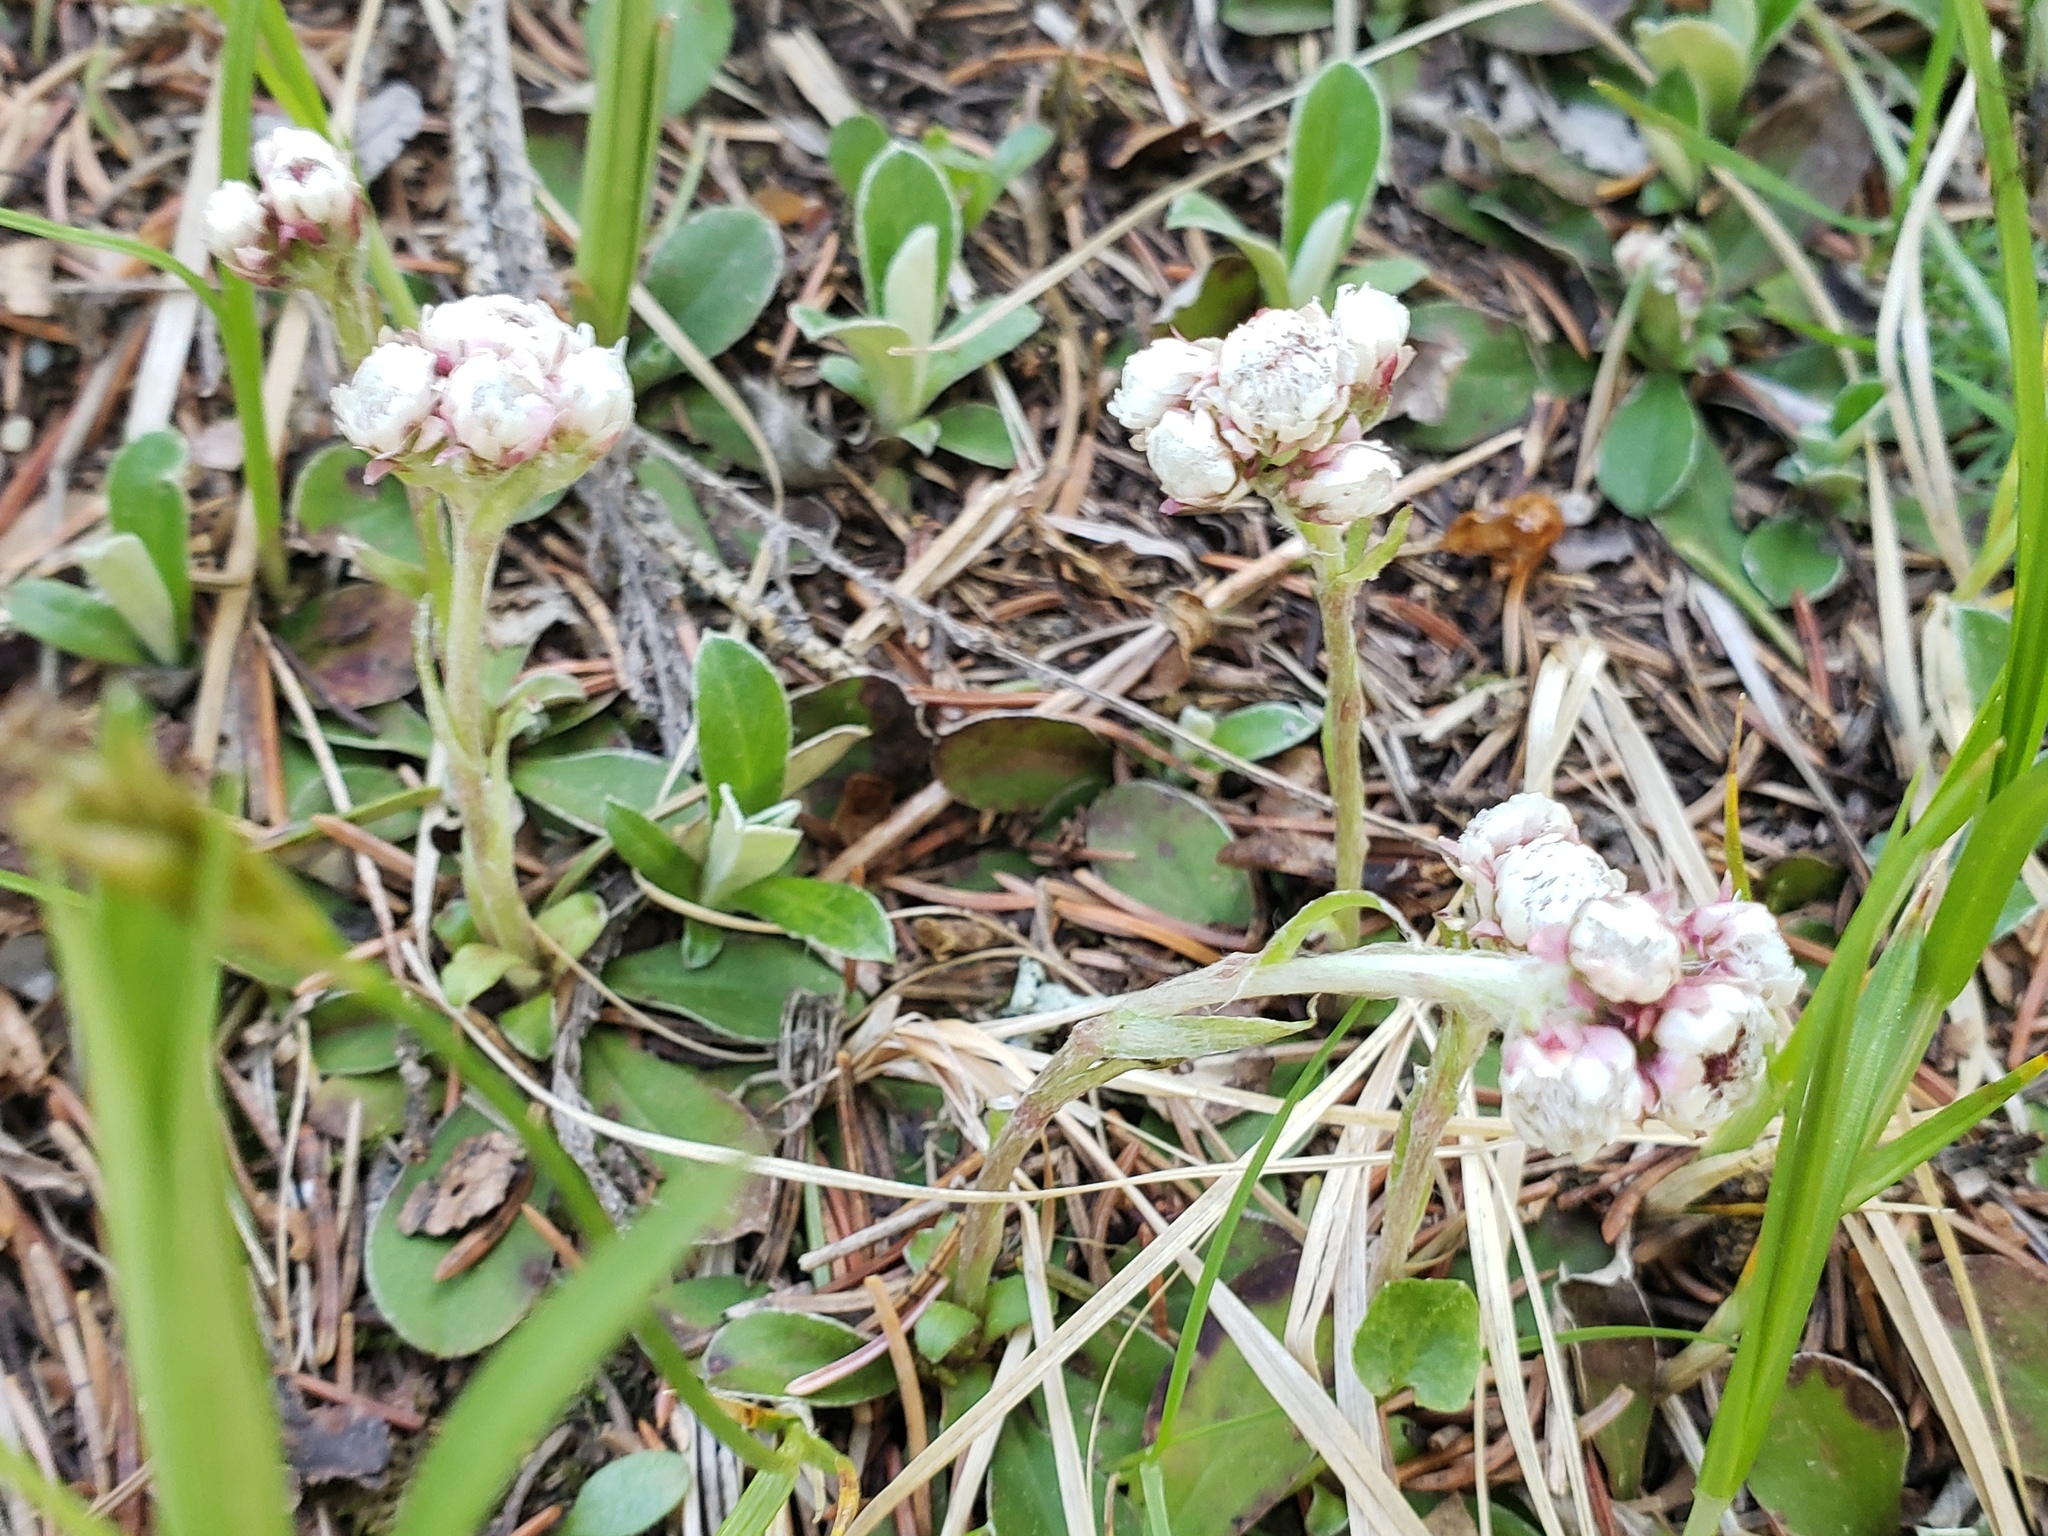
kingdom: Plantae
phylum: Tracheophyta
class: Magnoliopsida
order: Asterales
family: Asteraceae
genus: Antennaria
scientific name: Antennaria neglecta
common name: Field pussytoes
